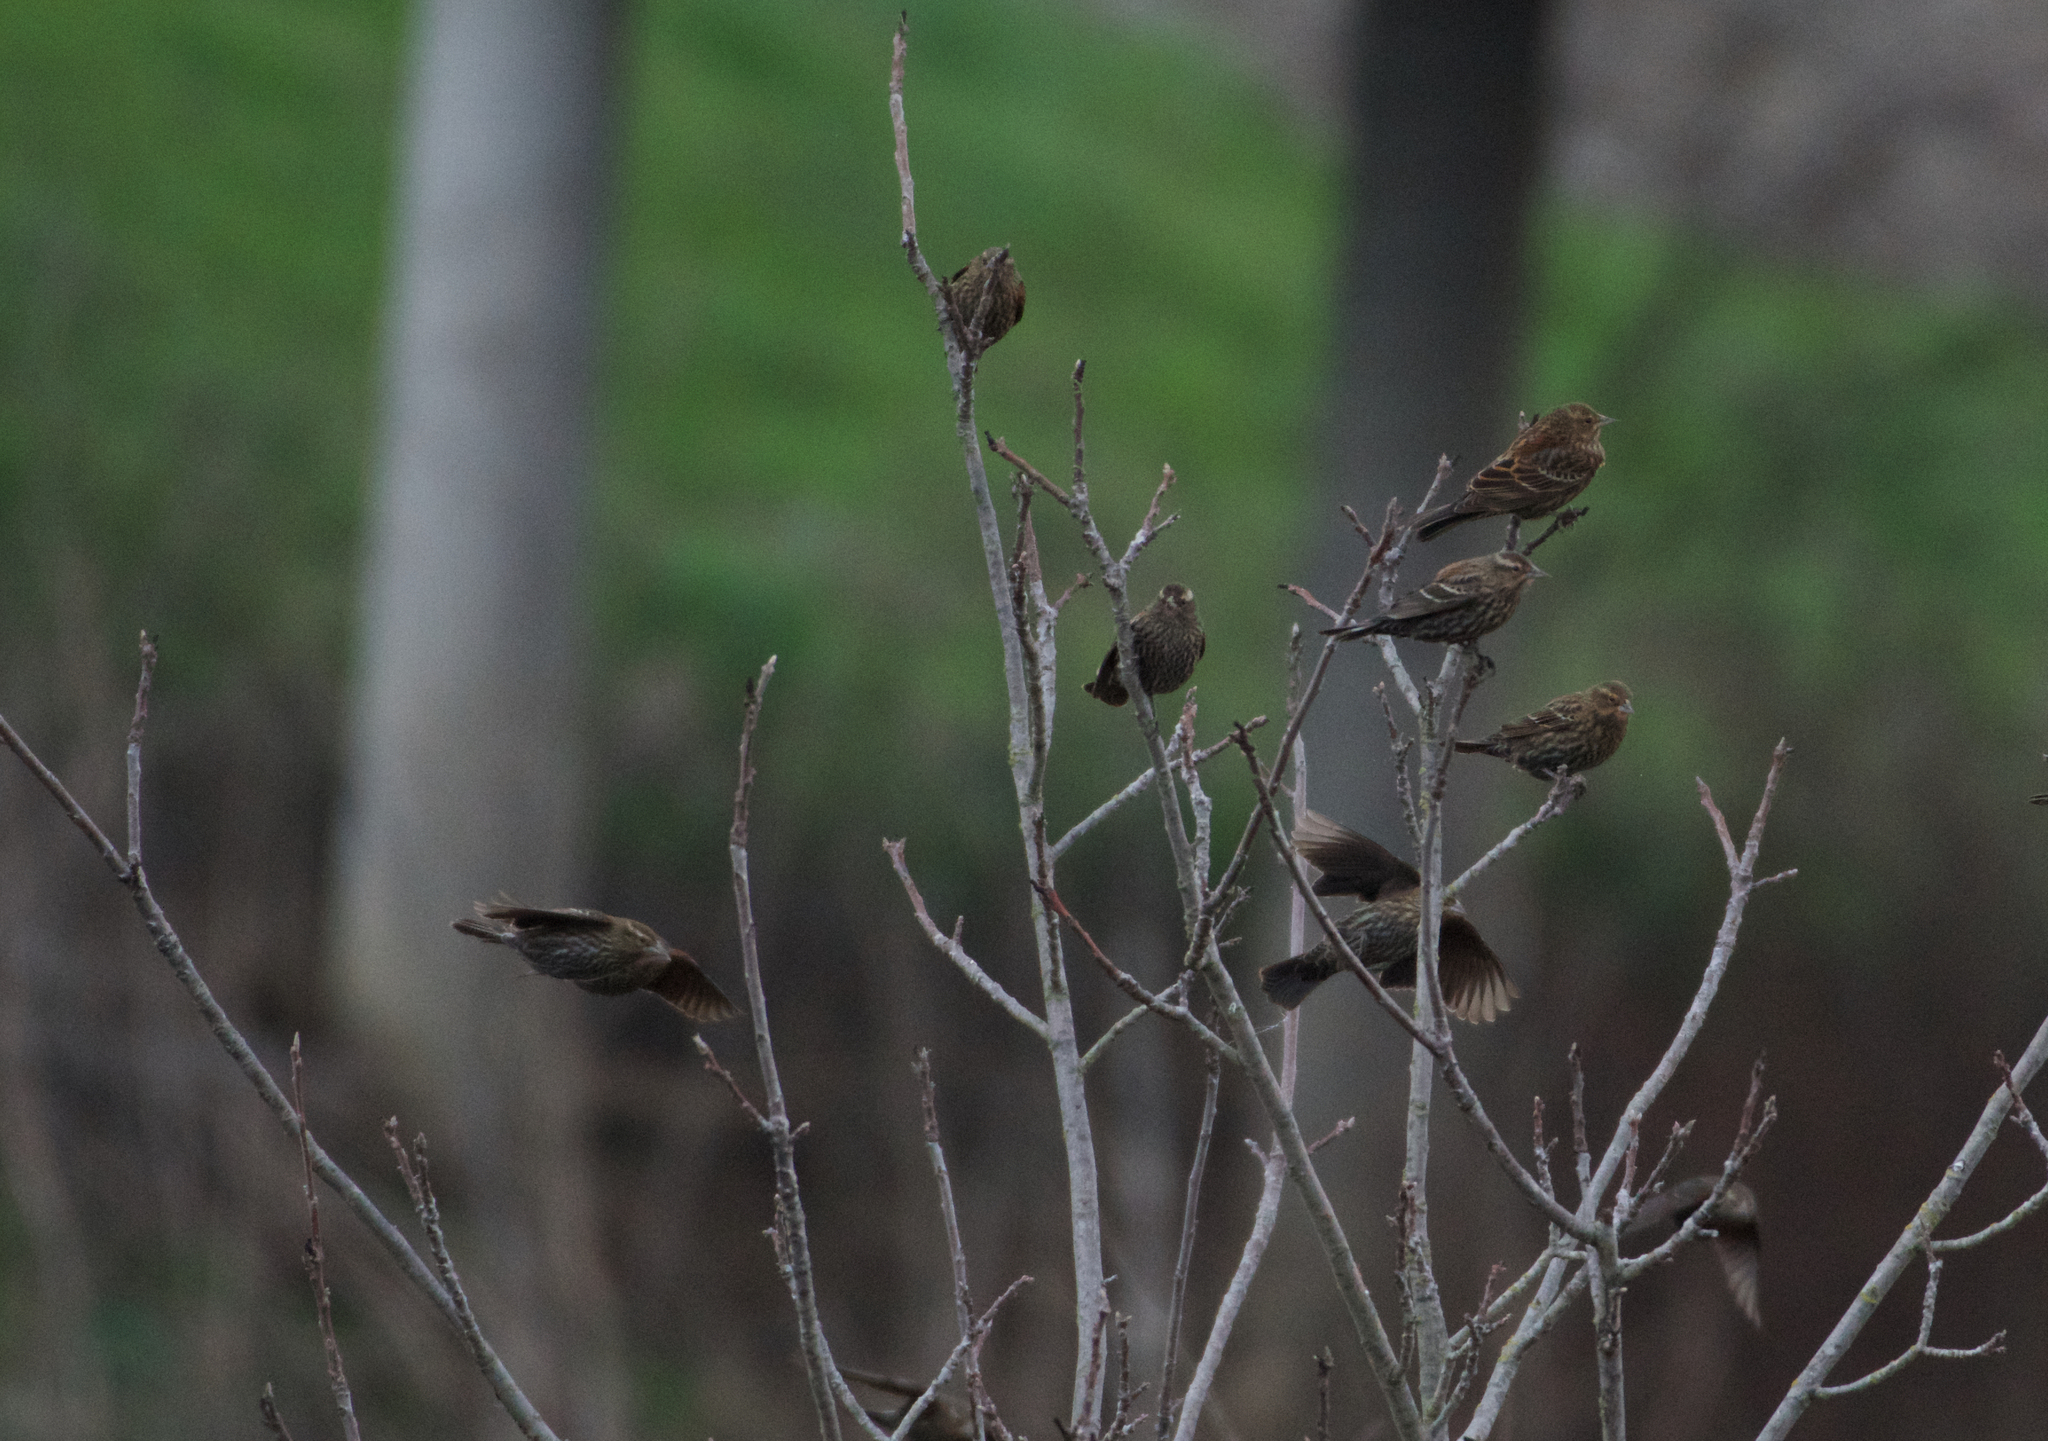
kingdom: Animalia
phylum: Chordata
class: Aves
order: Passeriformes
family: Icteridae
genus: Agelaius
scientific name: Agelaius phoeniceus
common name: Red-winged blackbird
